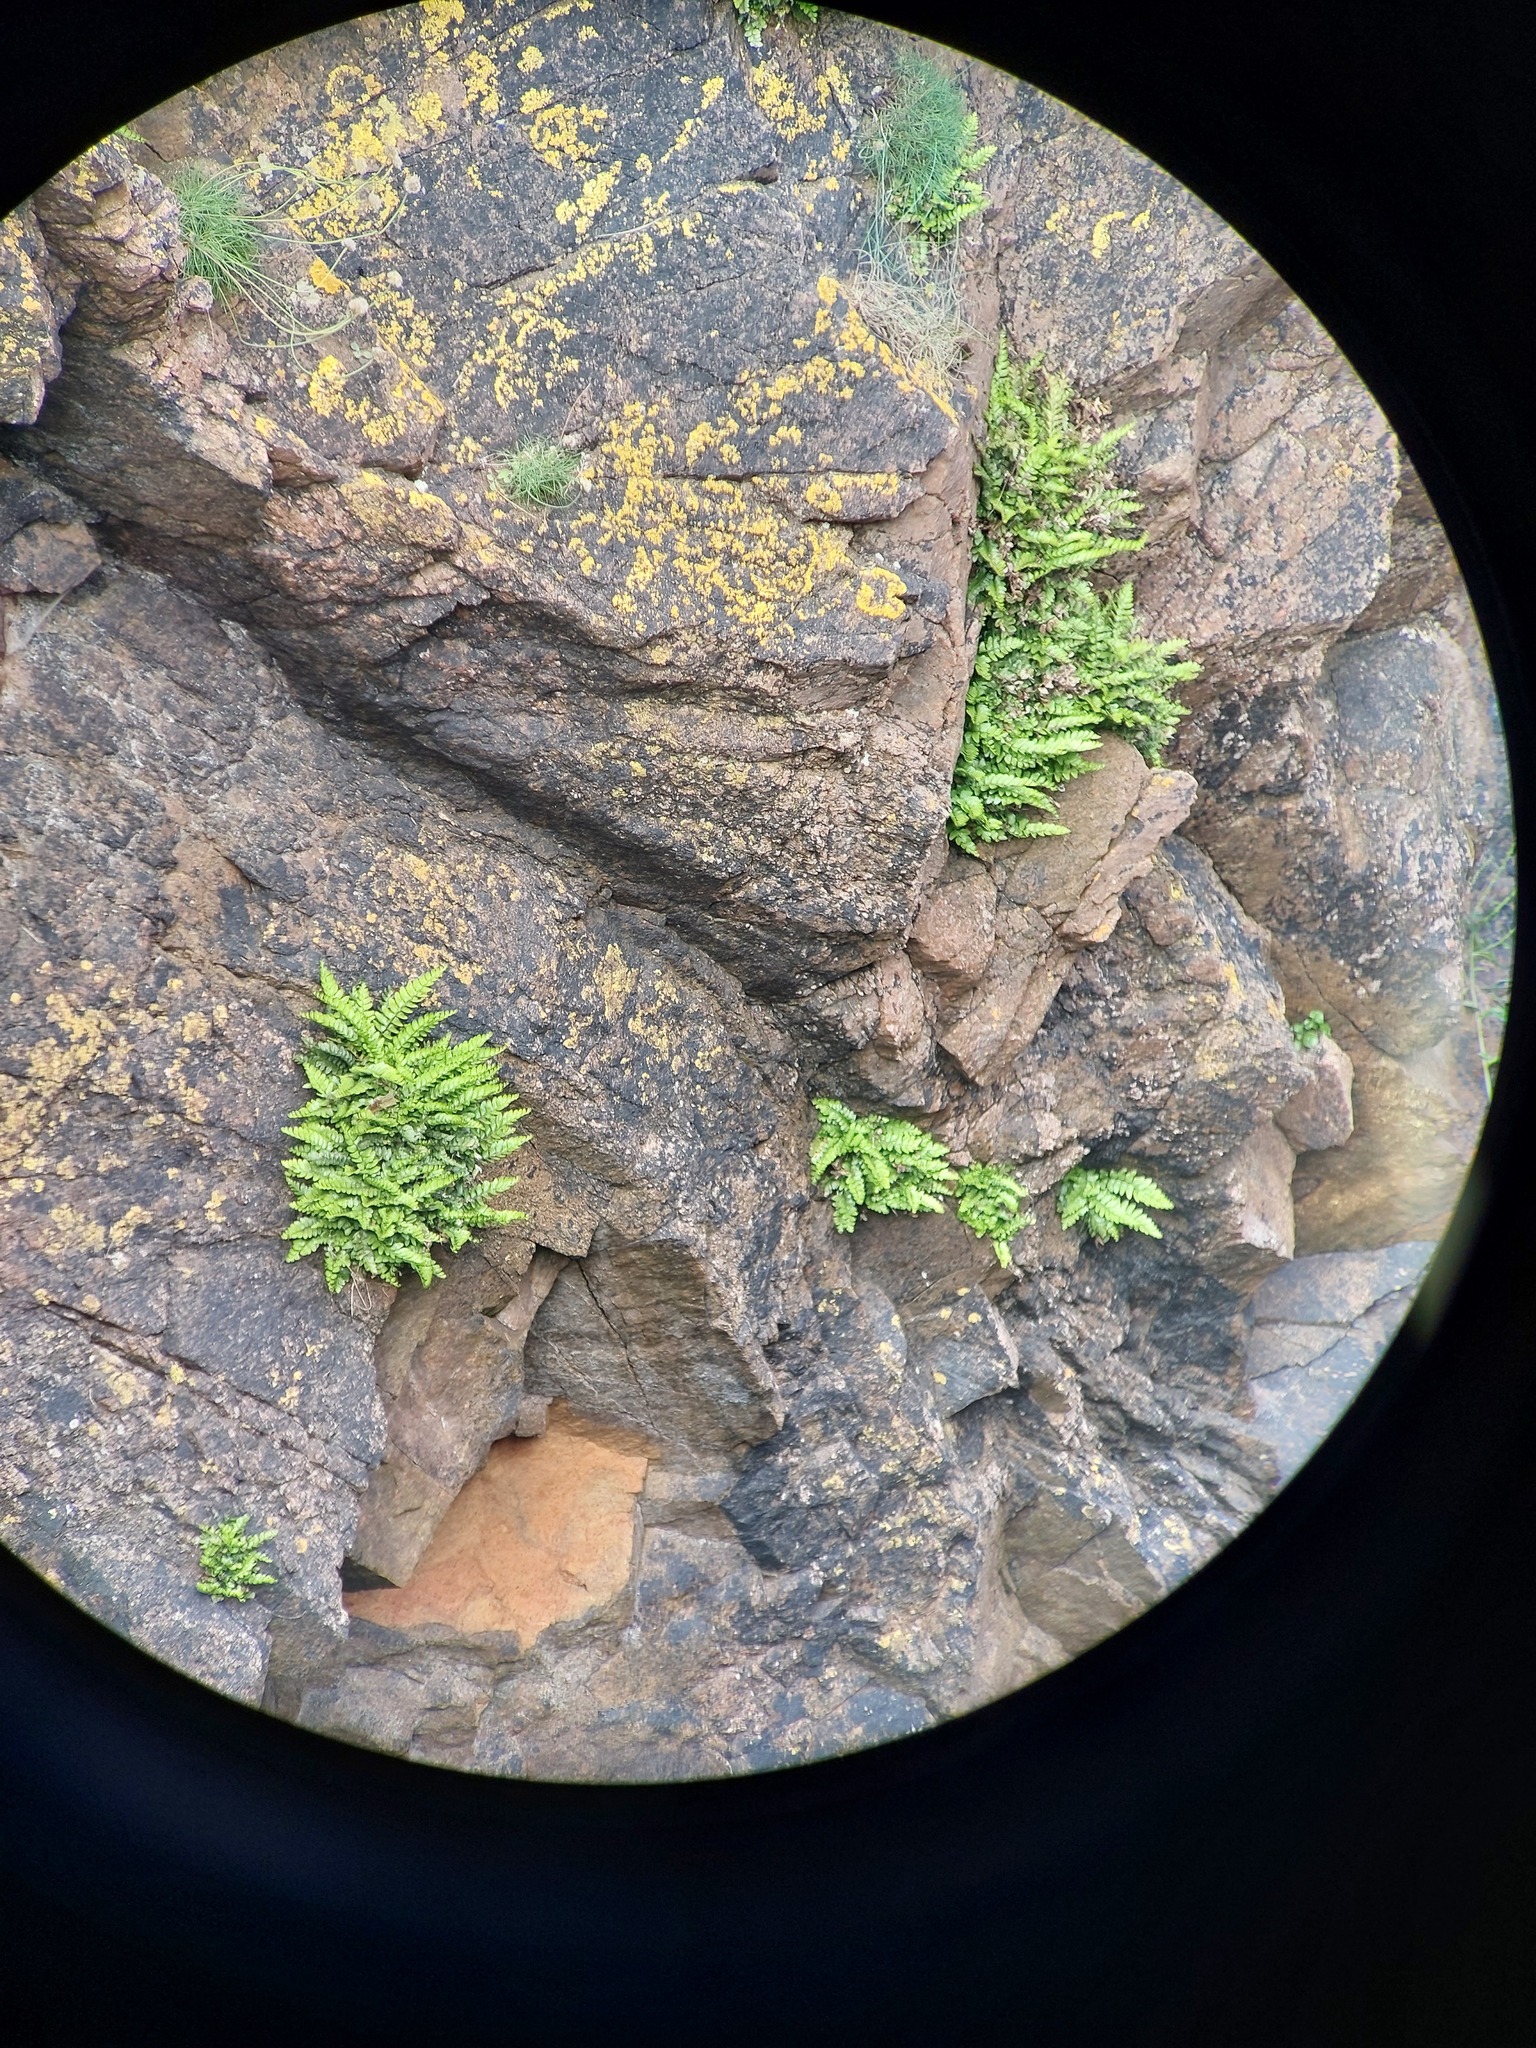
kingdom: Plantae
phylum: Tracheophyta
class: Polypodiopsida
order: Polypodiales
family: Aspleniaceae
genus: Asplenium
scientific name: Asplenium marinum
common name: Sea spleenwort
